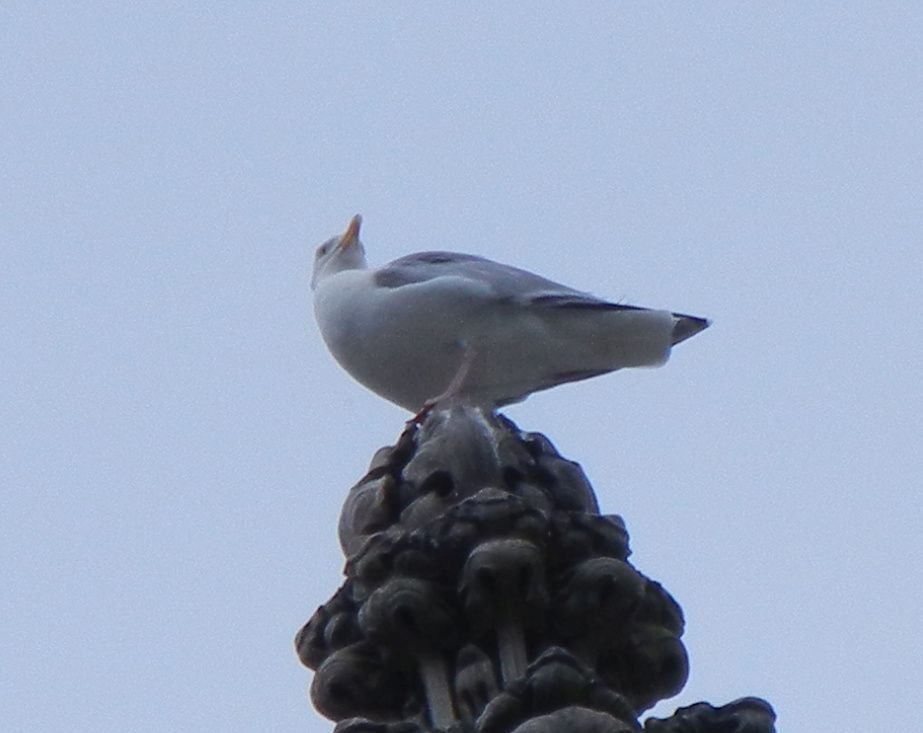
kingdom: Animalia
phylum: Chordata
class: Aves
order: Charadriiformes
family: Laridae
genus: Larus
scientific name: Larus argentatus
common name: Herring gull
